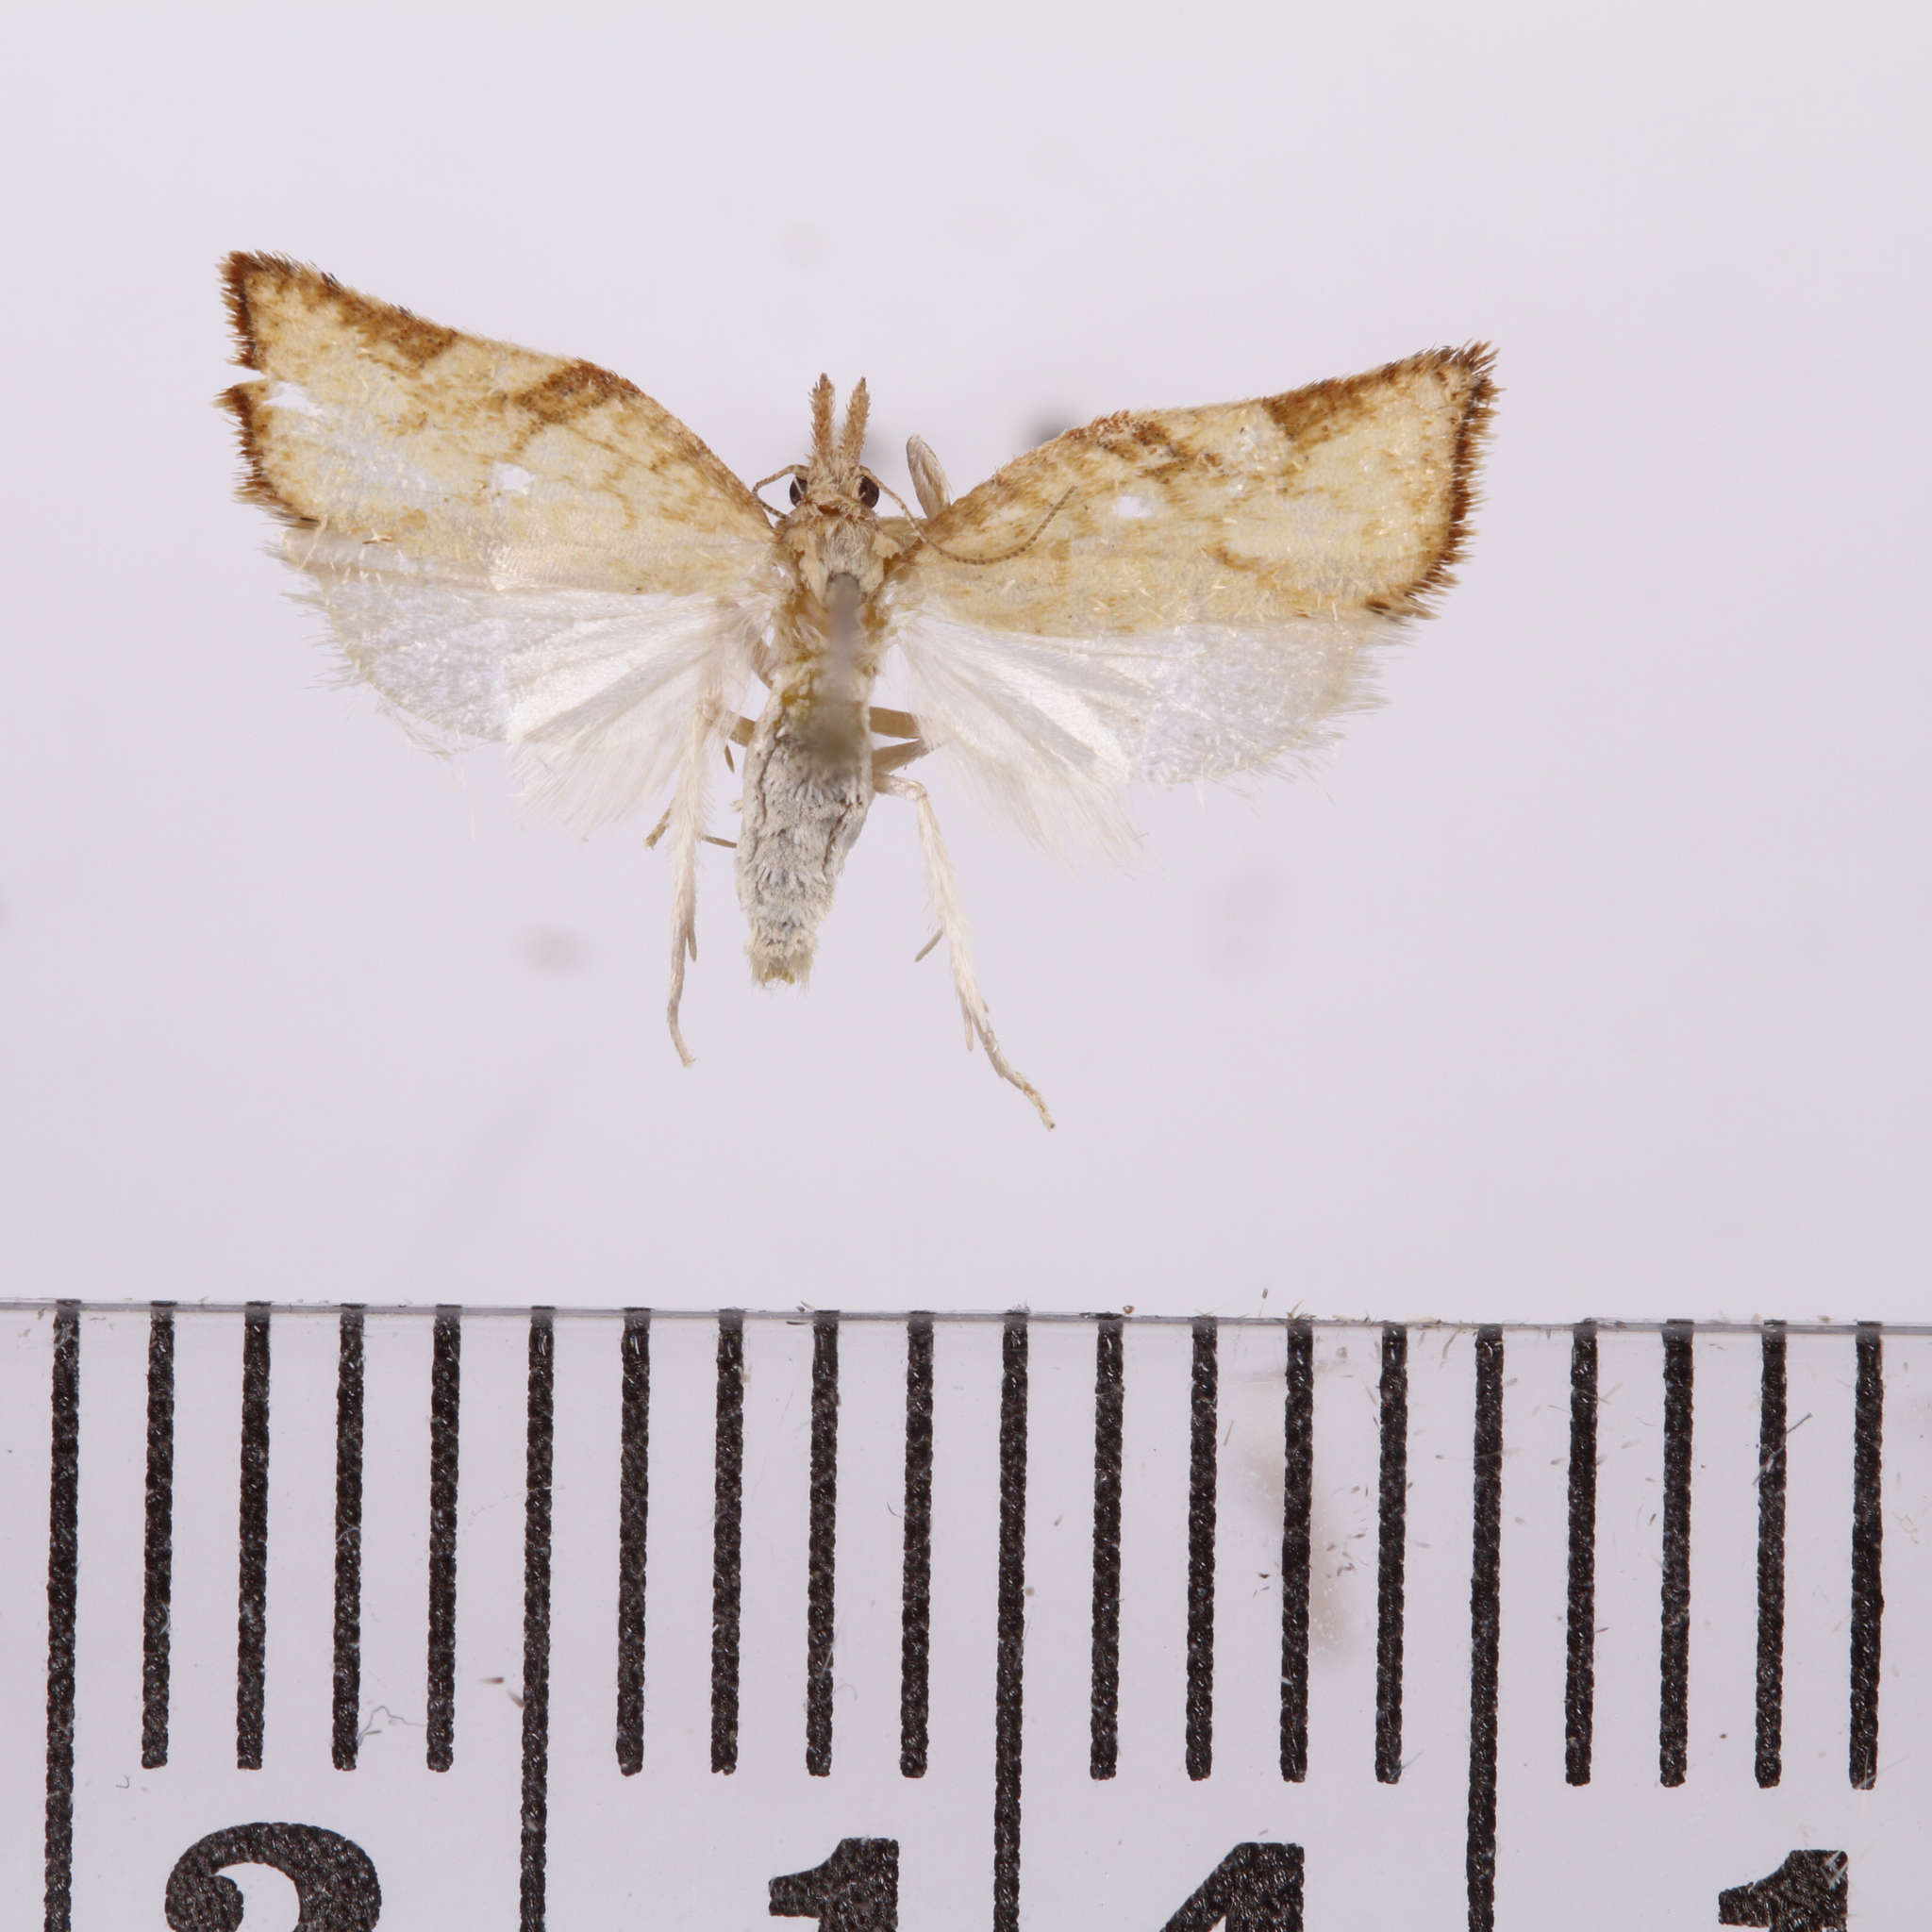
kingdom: Animalia
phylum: Arthropoda
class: Insecta
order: Lepidoptera
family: Tortricidae
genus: Catamacta
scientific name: Catamacta gavisana
